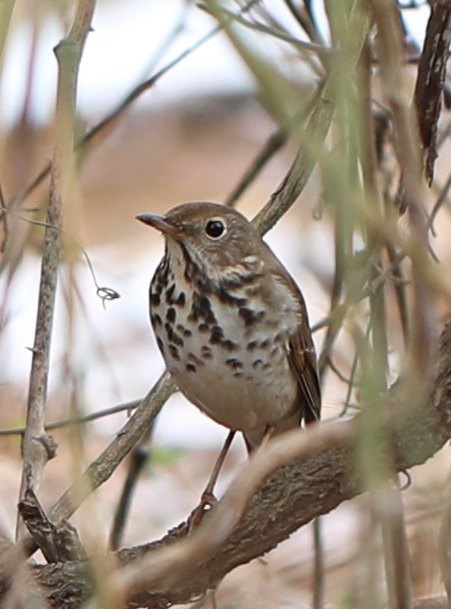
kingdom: Animalia
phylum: Chordata
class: Aves
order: Passeriformes
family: Turdidae
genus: Catharus
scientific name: Catharus guttatus
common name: Hermit thrush
